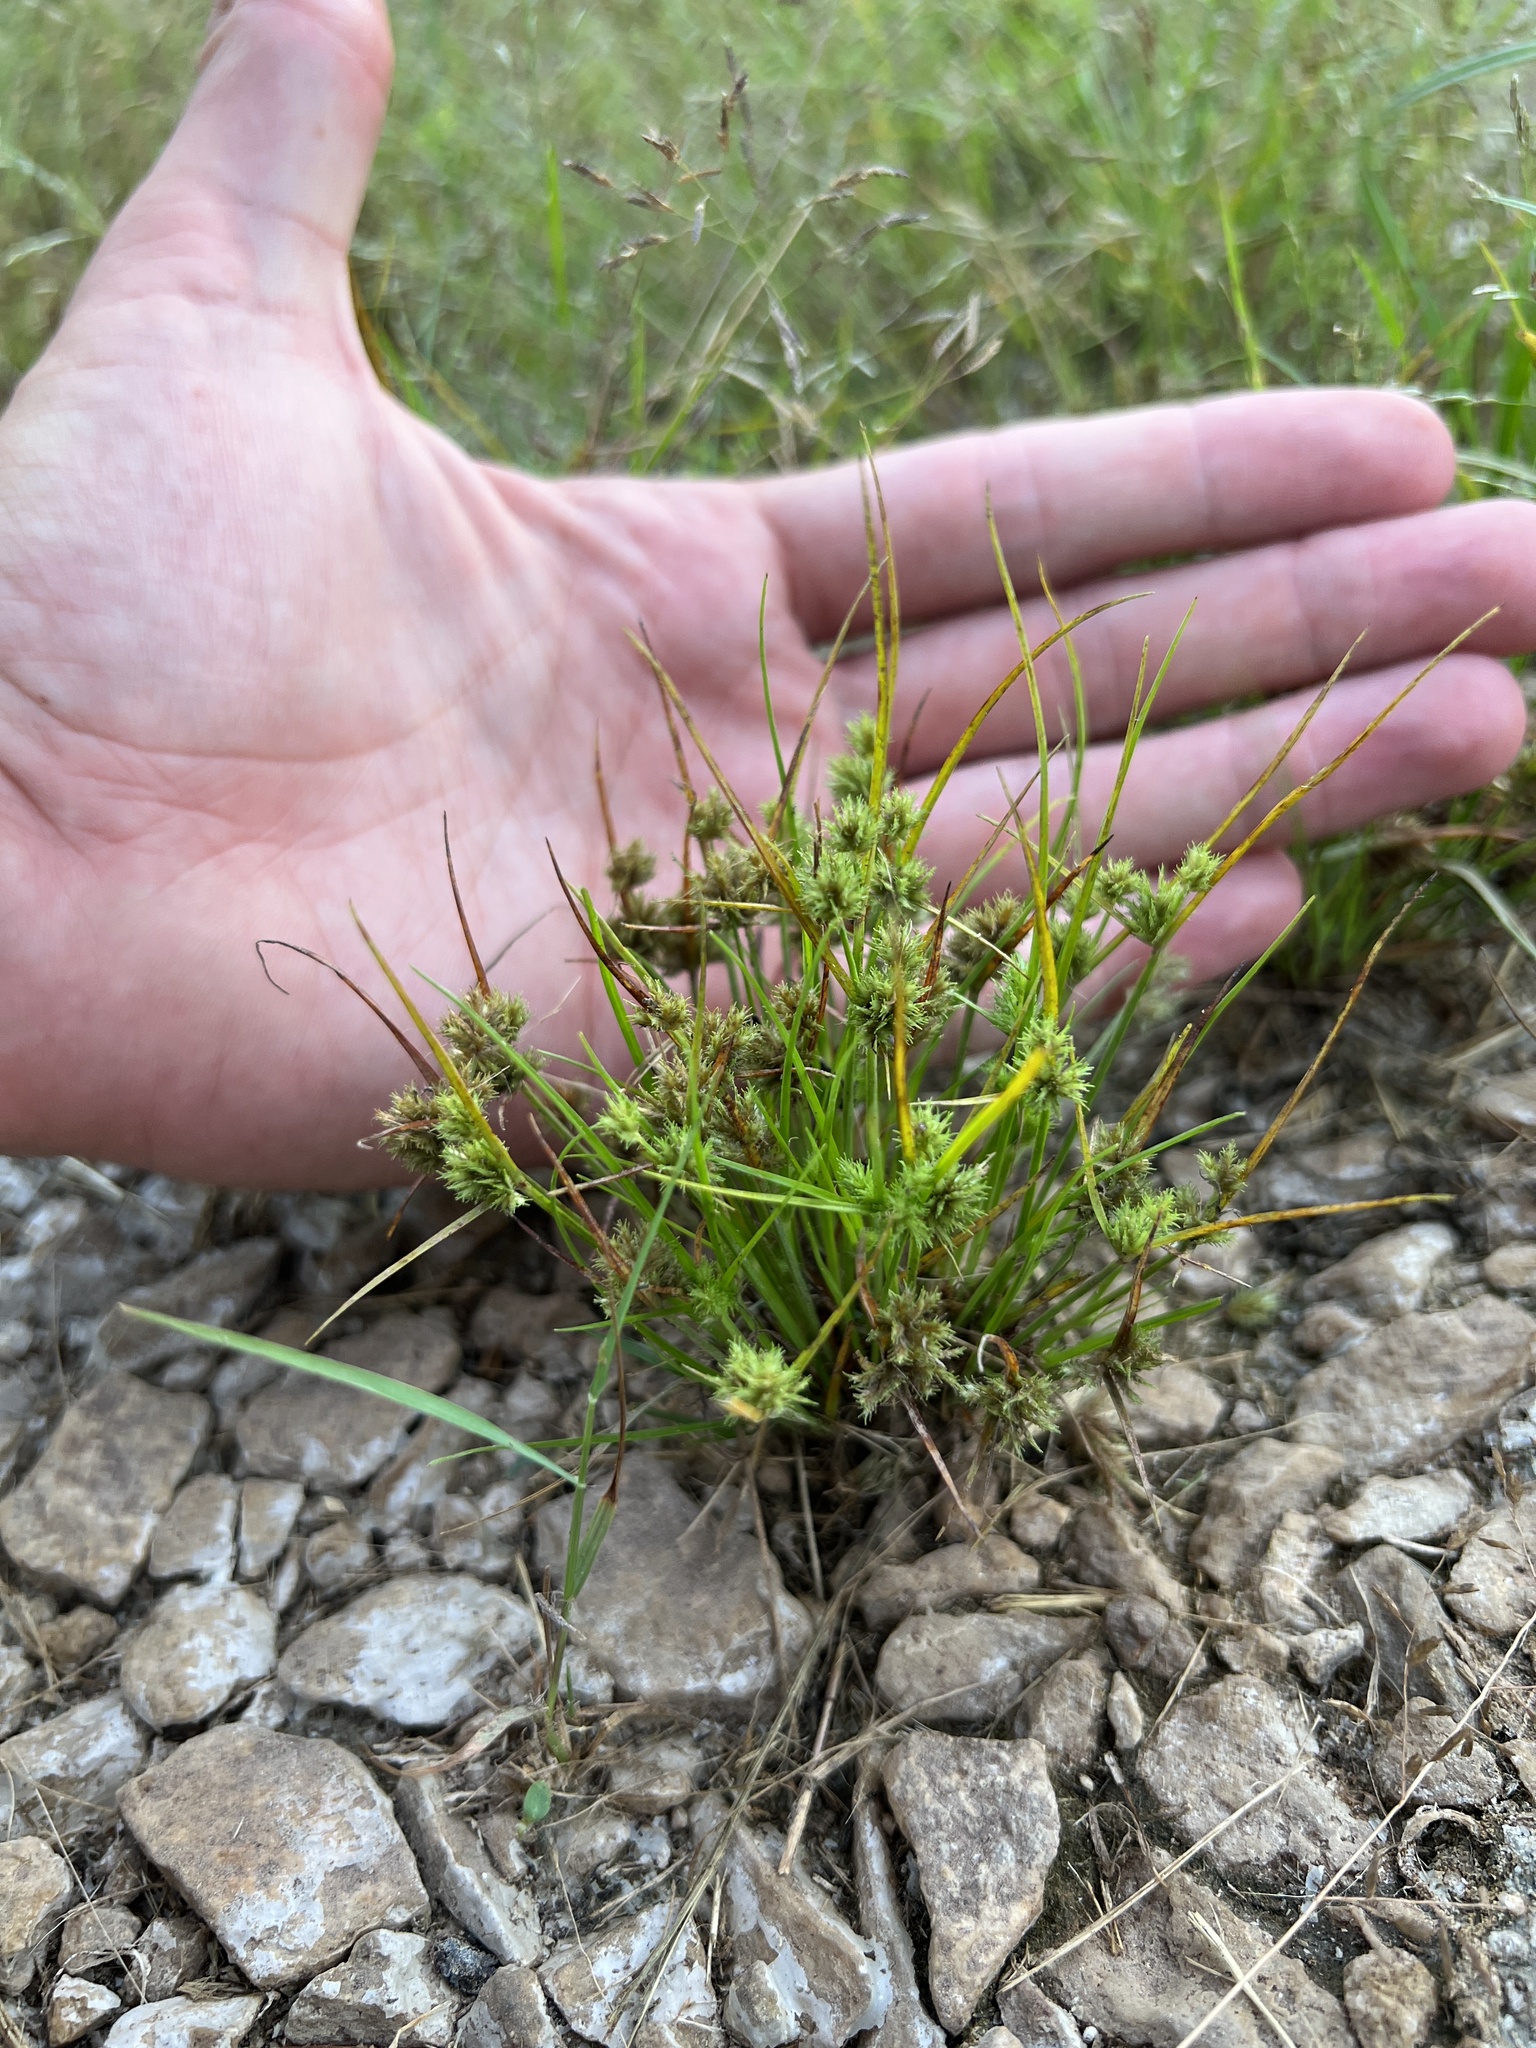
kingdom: Plantae
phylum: Tracheophyta
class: Liliopsida
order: Poales
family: Cyperaceae
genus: Cyperus
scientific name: Cyperus squarrosus
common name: Awned cyperus
